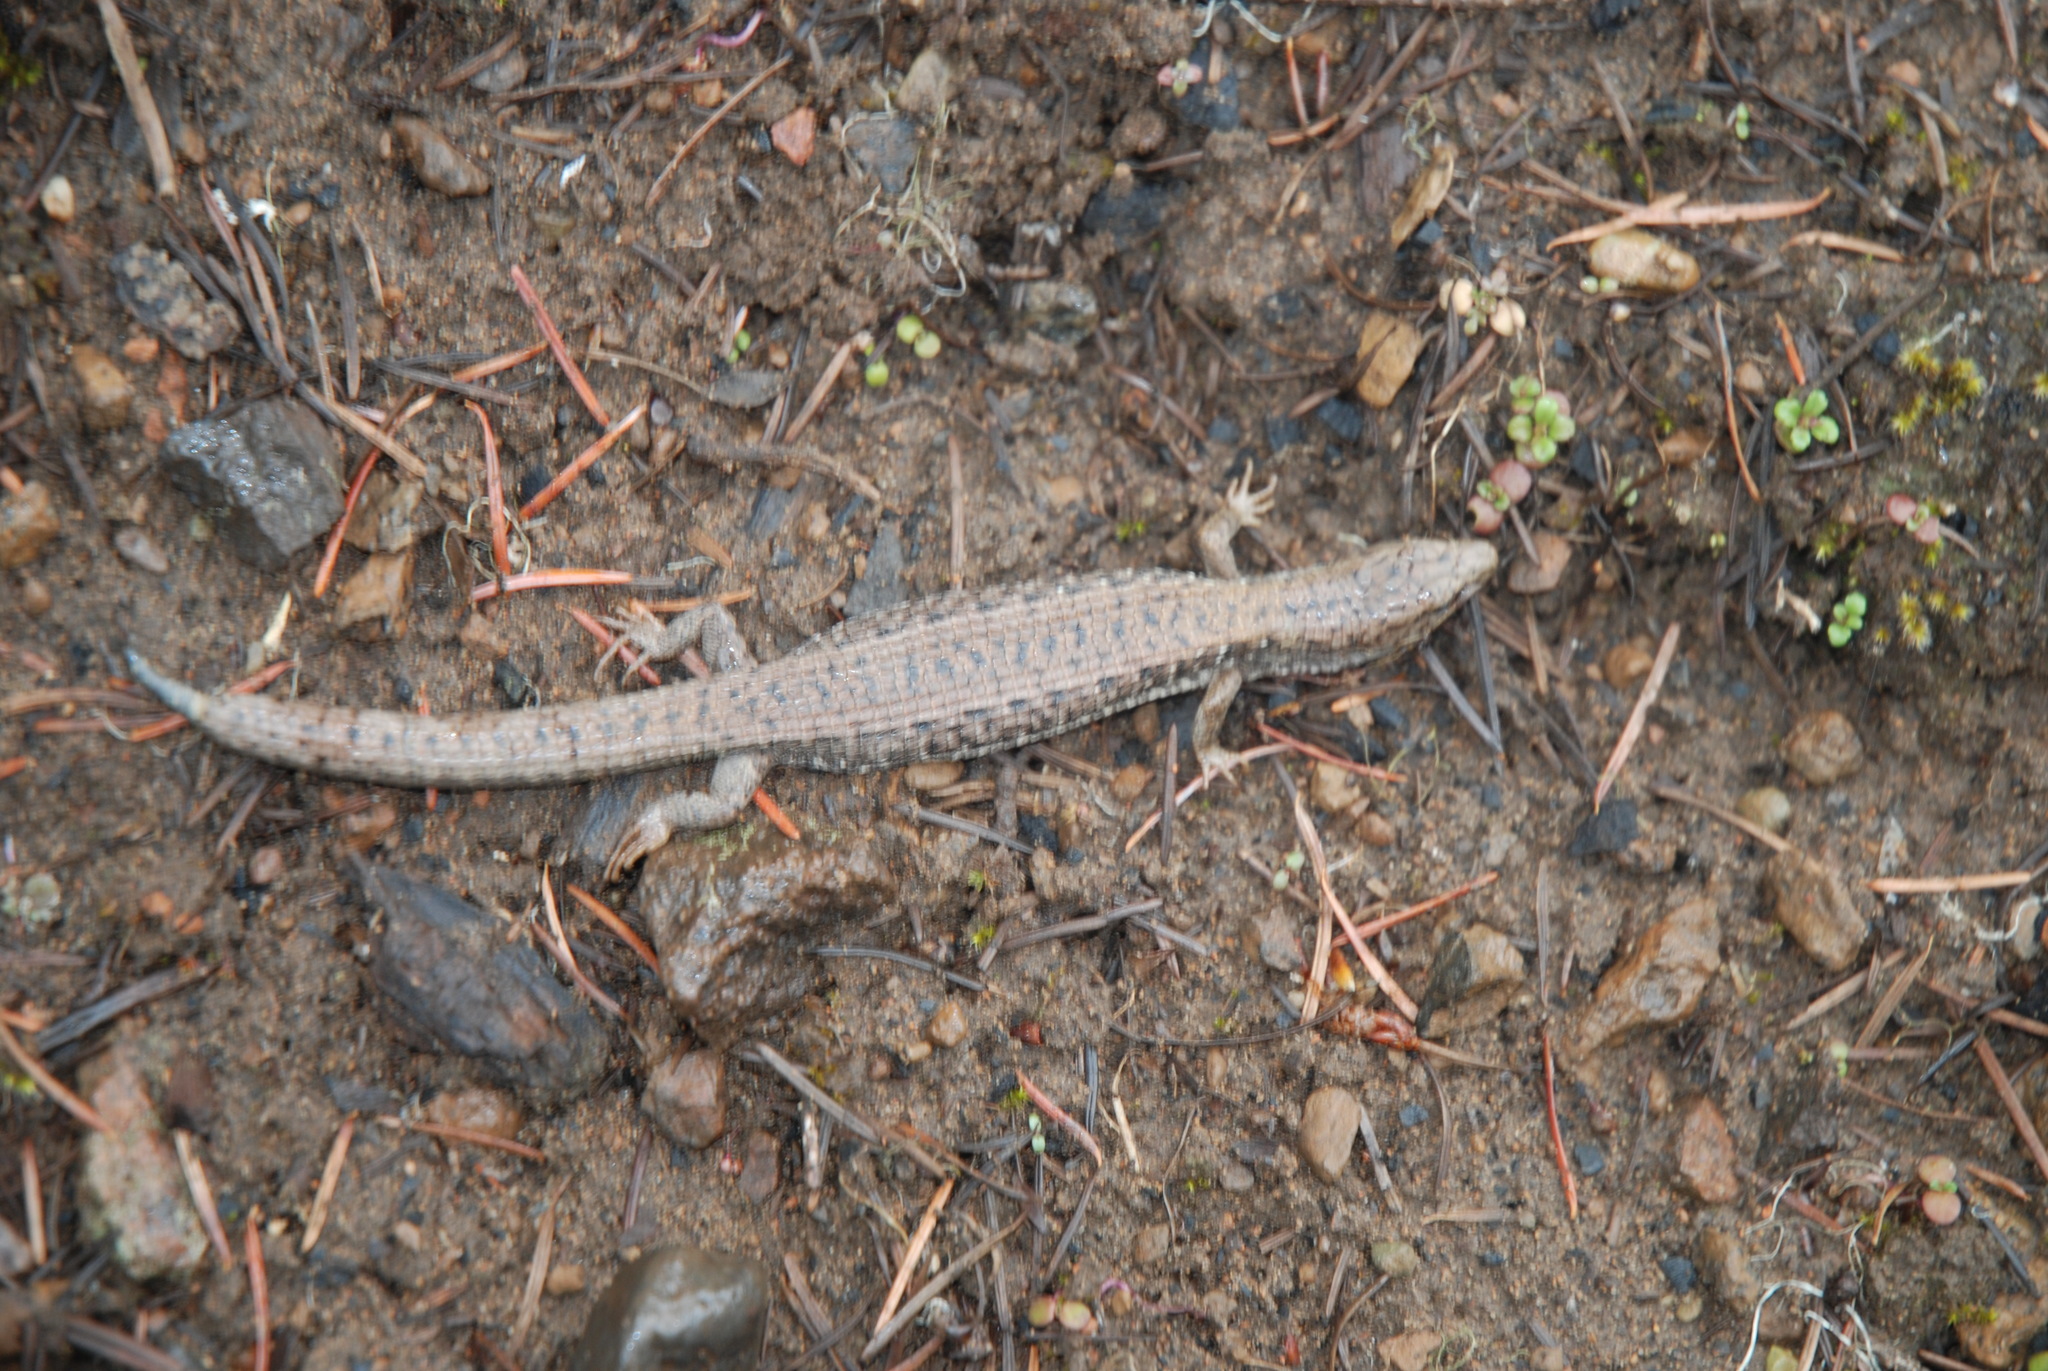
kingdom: Animalia
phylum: Chordata
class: Squamata
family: Anguidae
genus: Elgaria
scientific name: Elgaria coerulea
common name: Northern alligator lizard
